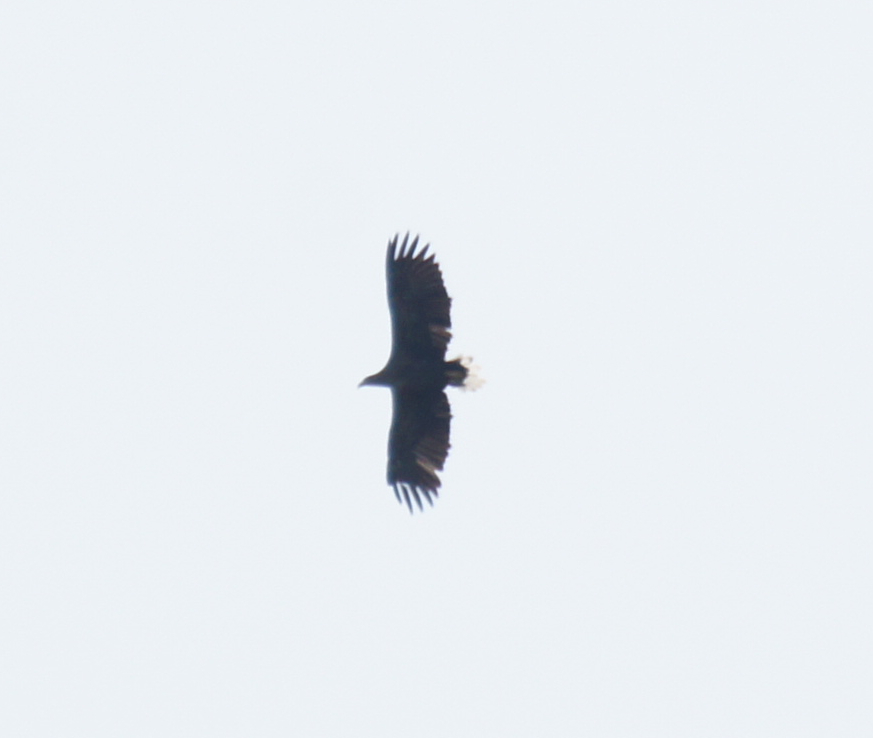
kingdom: Animalia
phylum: Chordata
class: Aves
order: Accipitriformes
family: Accipitridae
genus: Haliaeetus
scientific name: Haliaeetus albicilla
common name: White-tailed eagle
